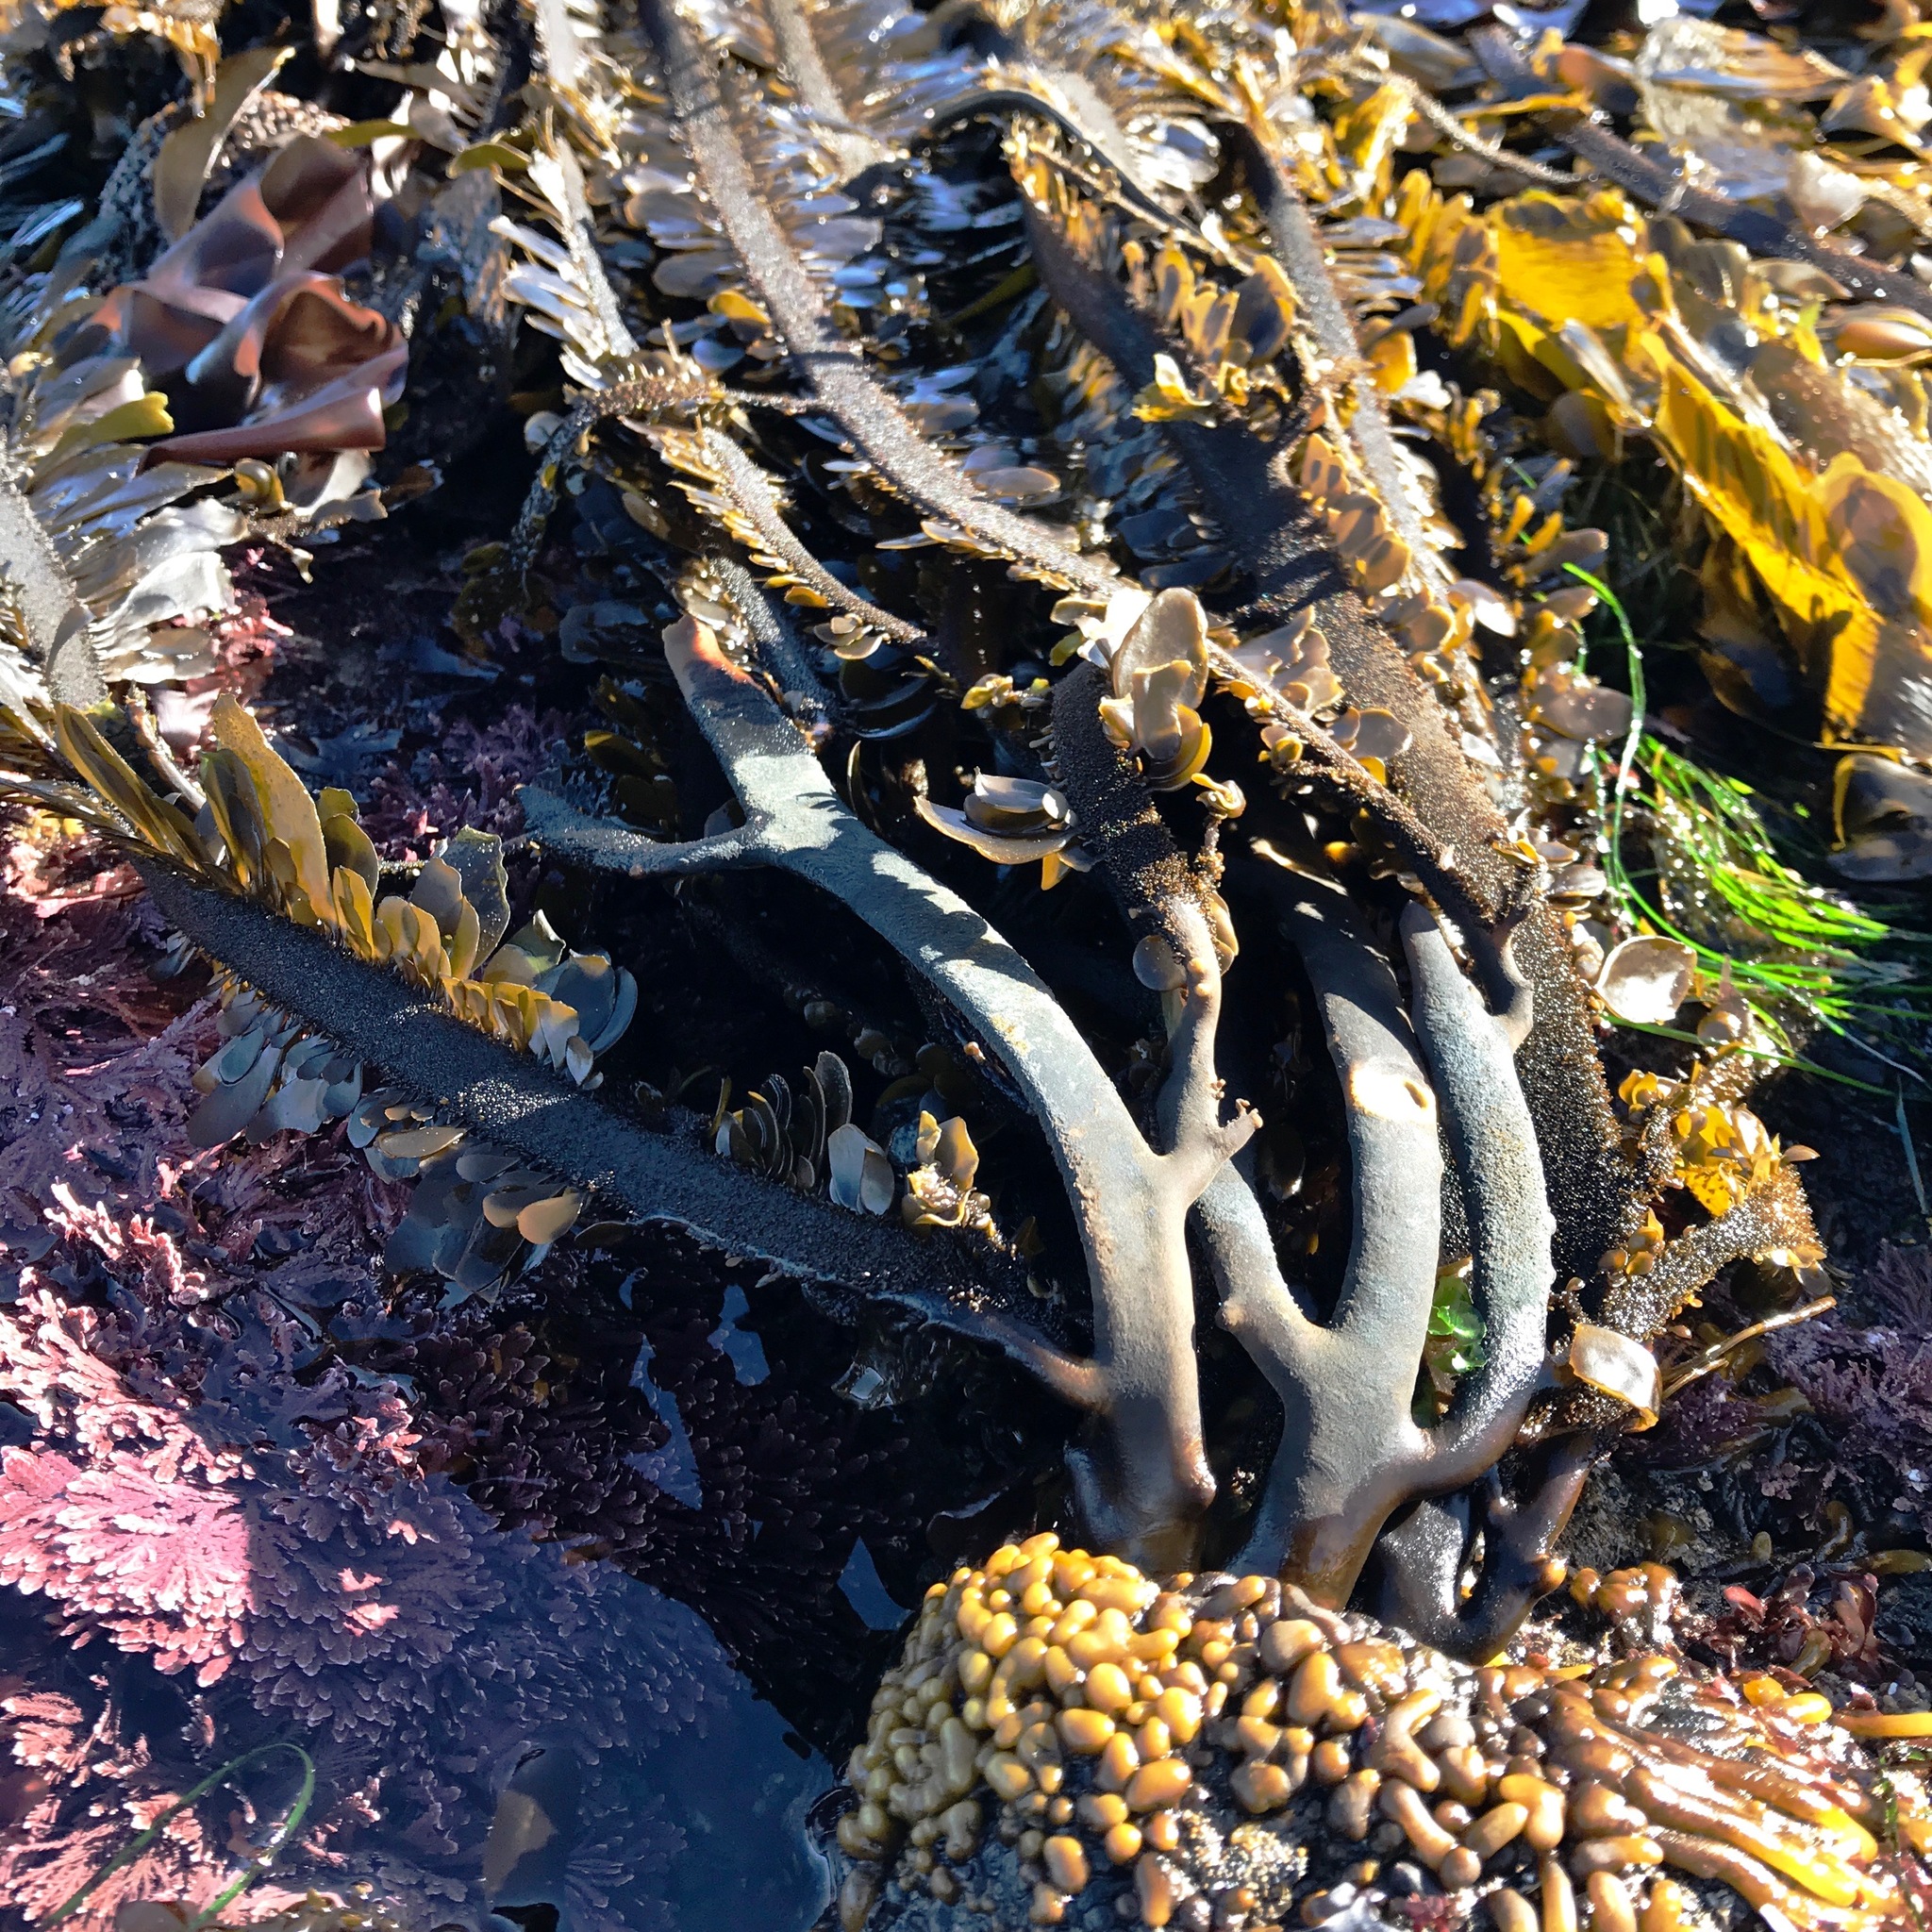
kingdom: Chromista
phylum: Ochrophyta
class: Phaeophyceae
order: Laminariales
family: Lessoniaceae
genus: Egregia
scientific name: Egregia menziesii
